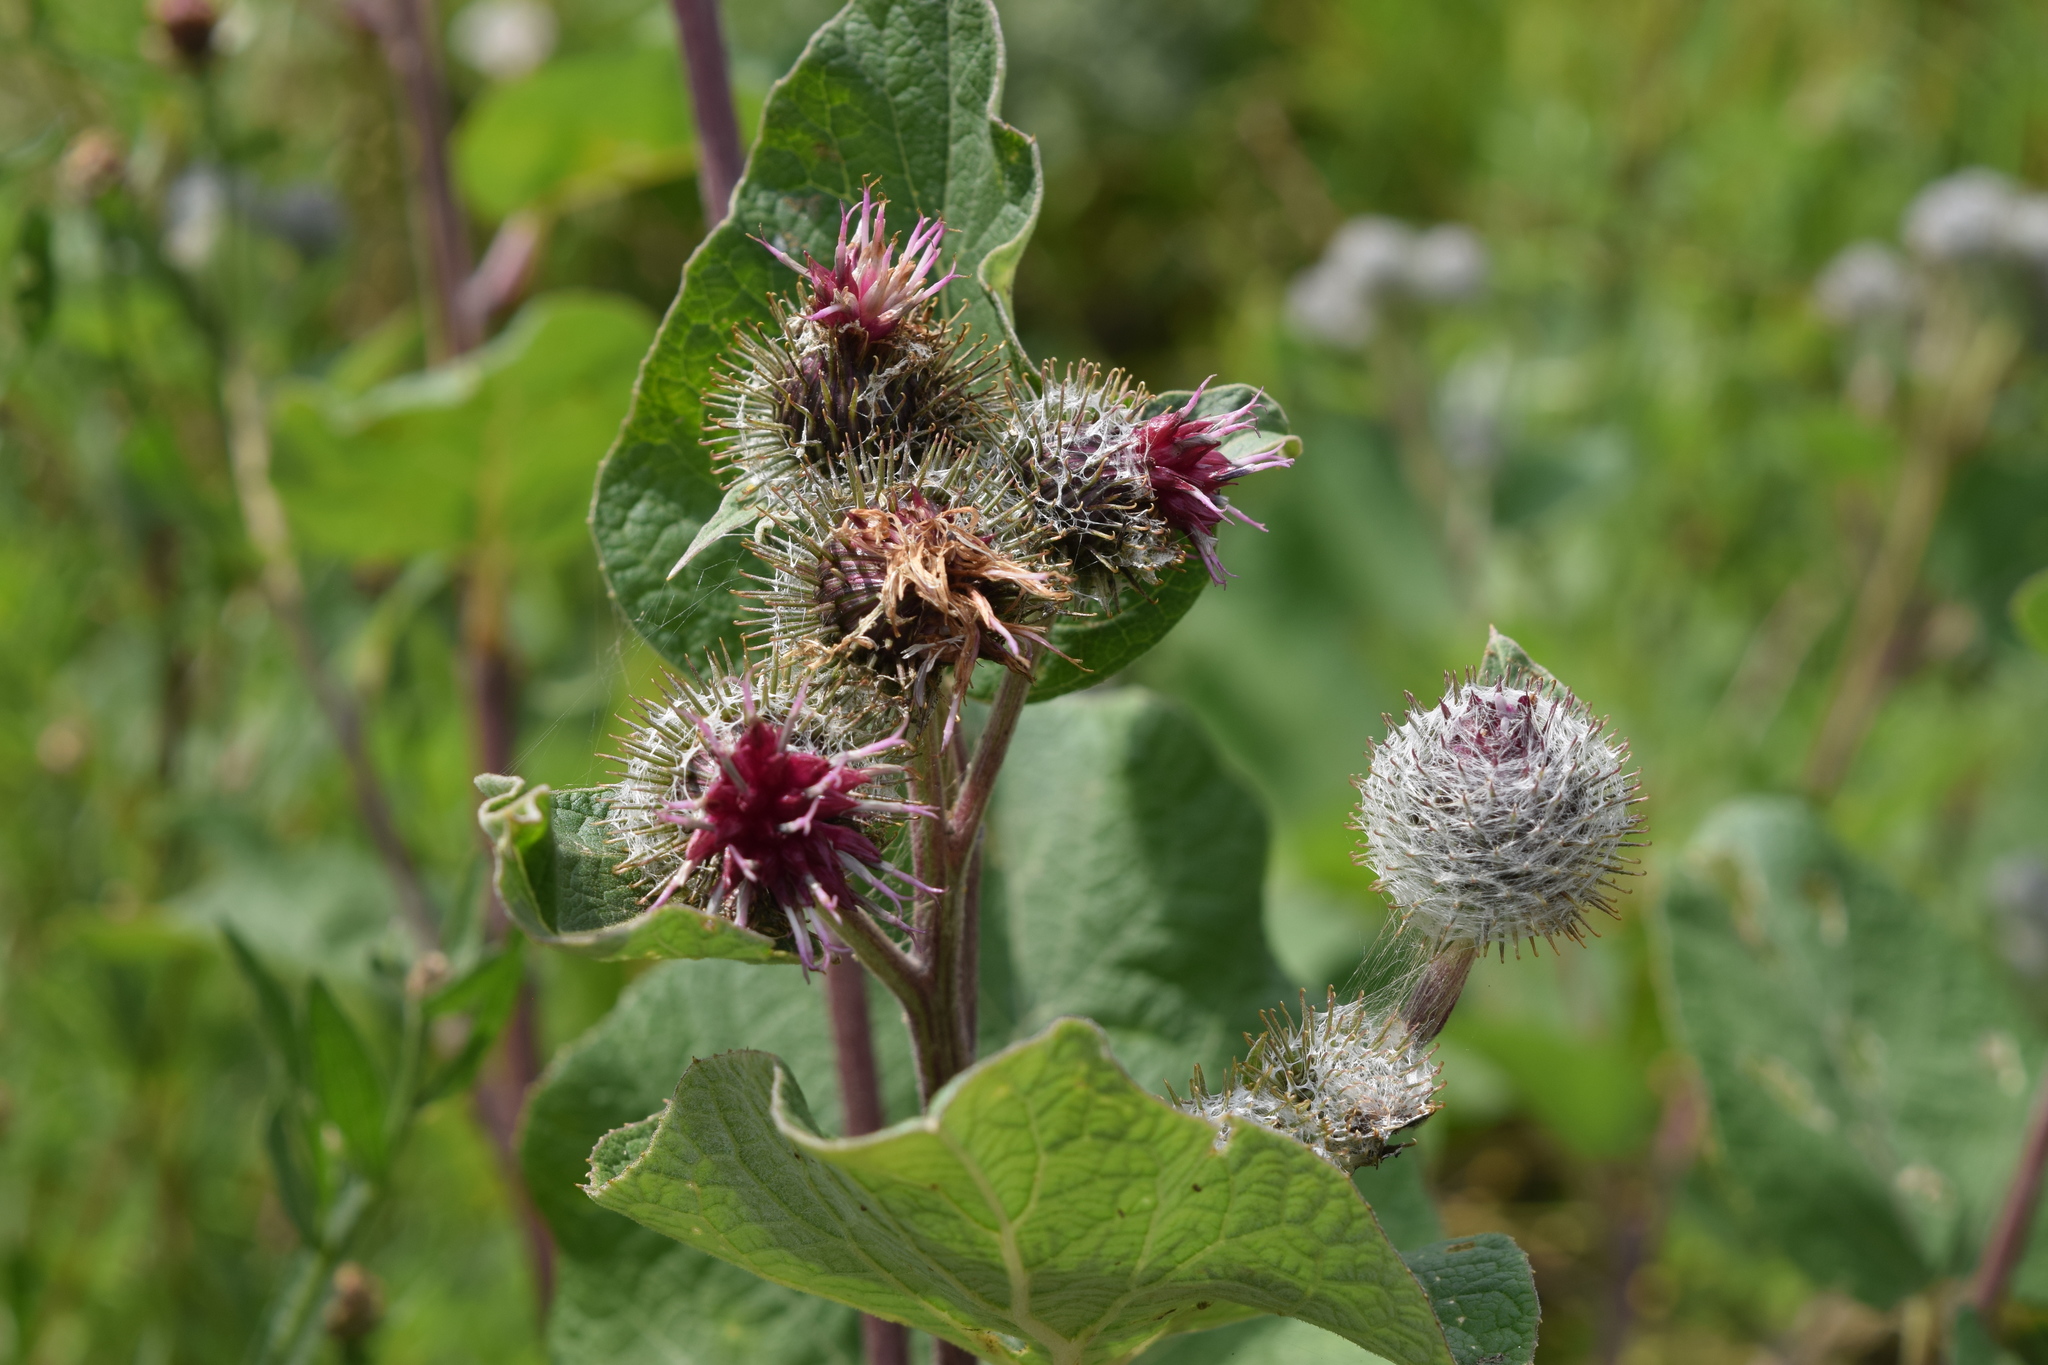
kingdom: Plantae
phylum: Tracheophyta
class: Magnoliopsida
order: Asterales
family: Asteraceae
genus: Arctium
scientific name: Arctium tomentosum
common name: Woolly burdock
